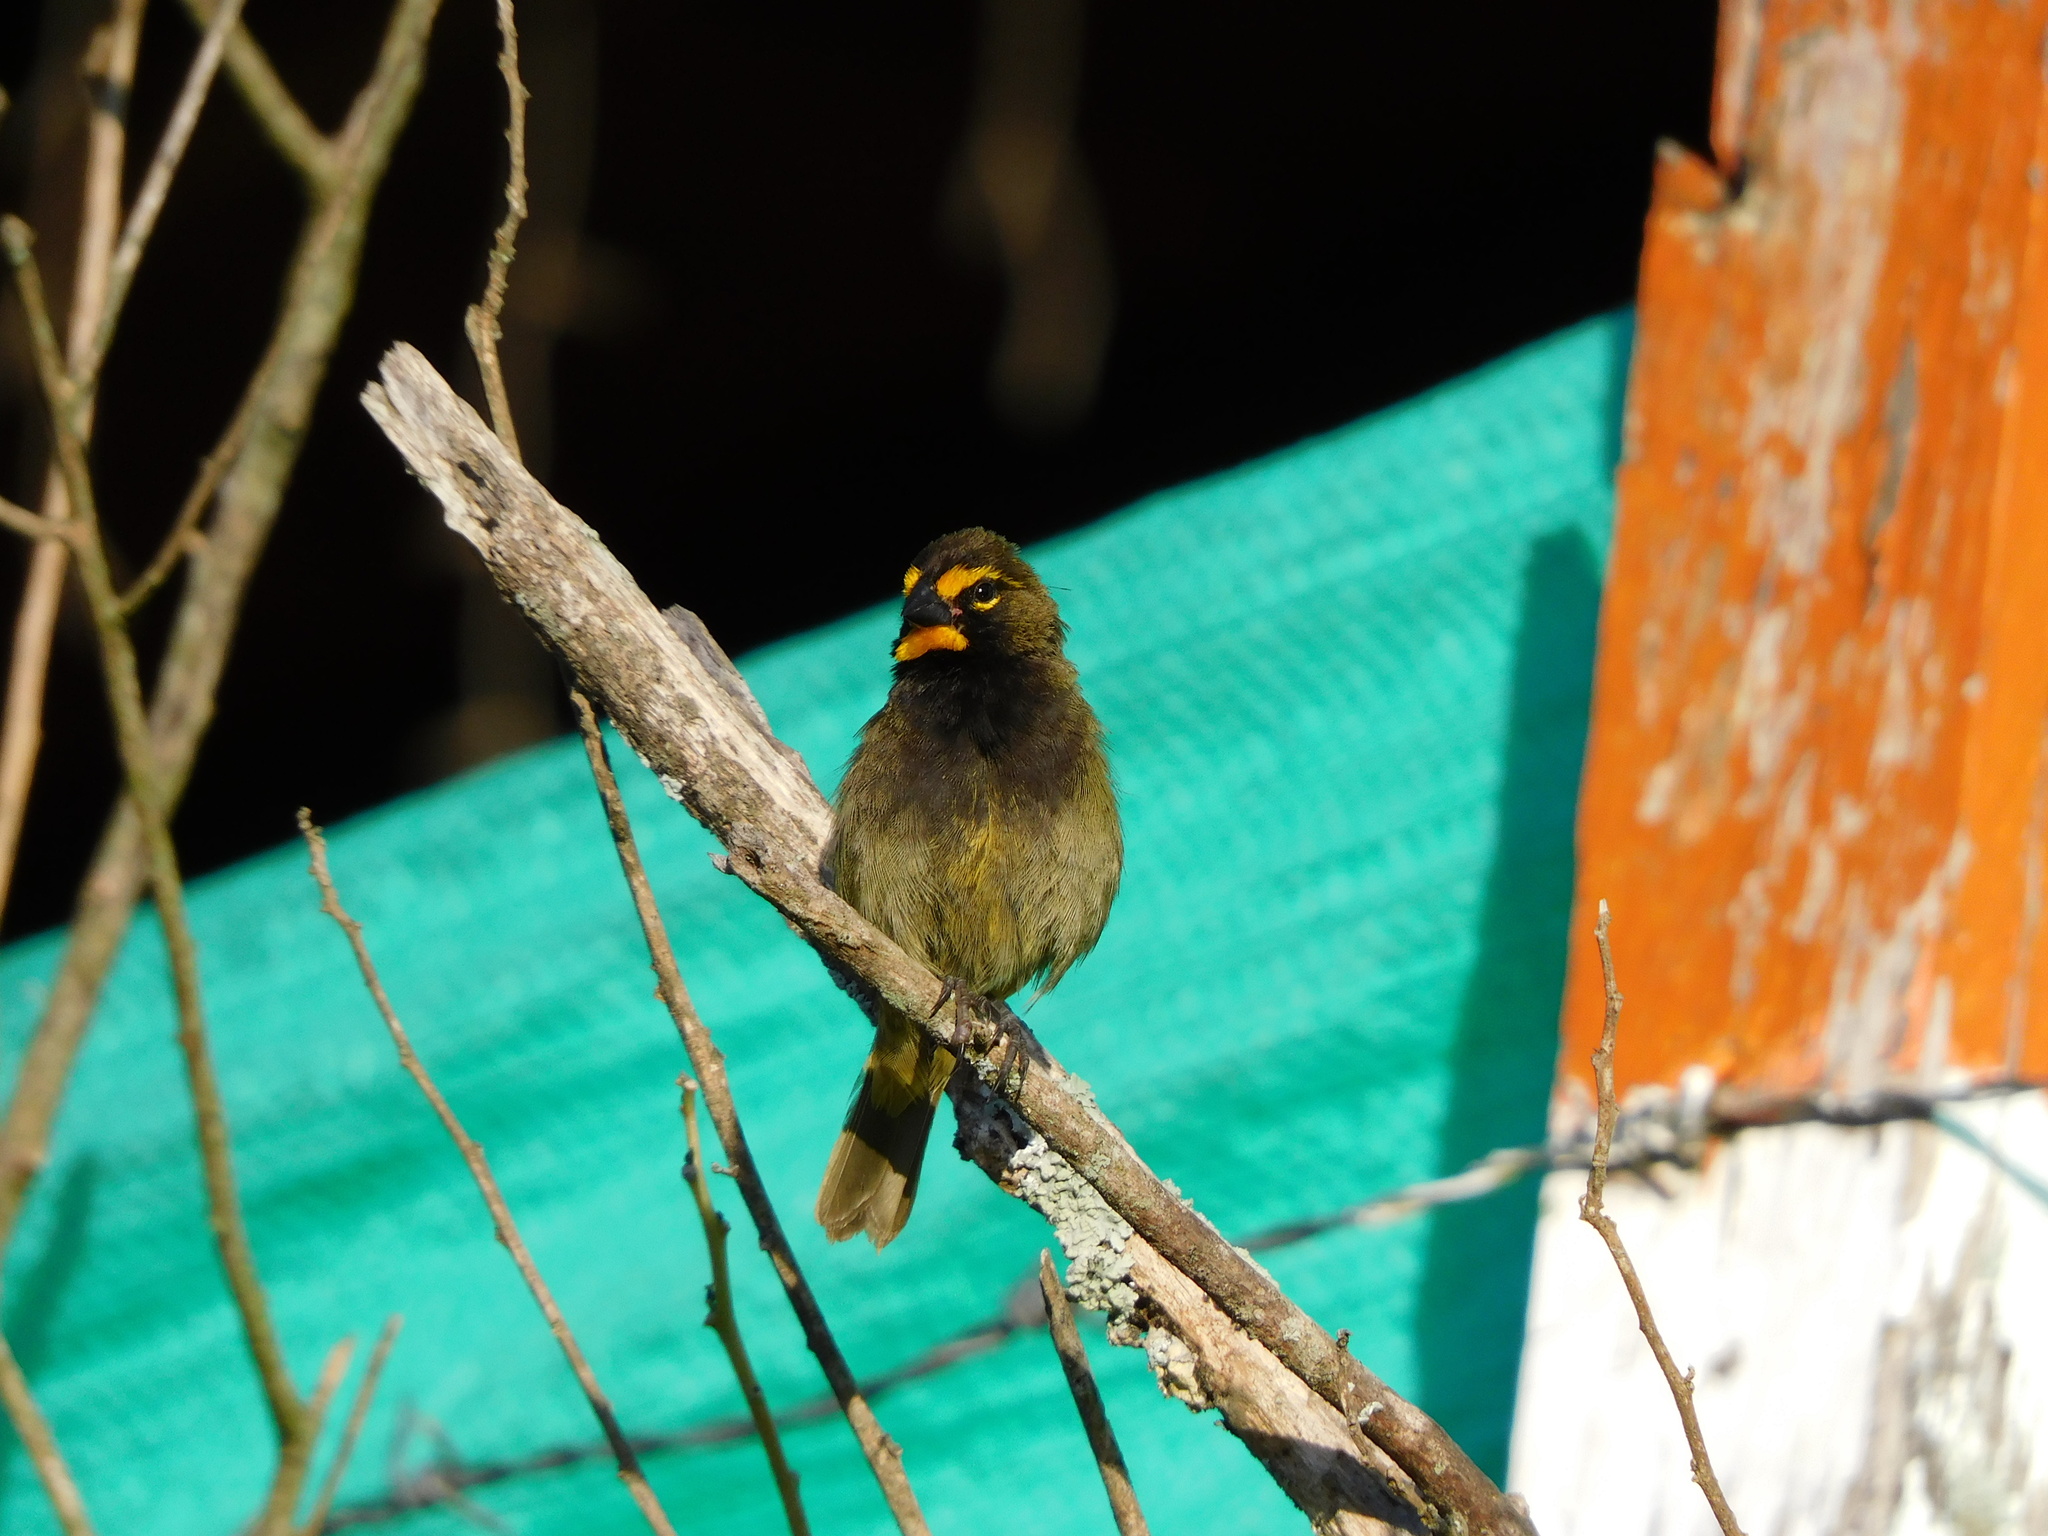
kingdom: Animalia
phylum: Chordata
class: Aves
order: Passeriformes
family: Thraupidae
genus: Tiaris
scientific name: Tiaris olivaceus
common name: Yellow-faced grassquit
